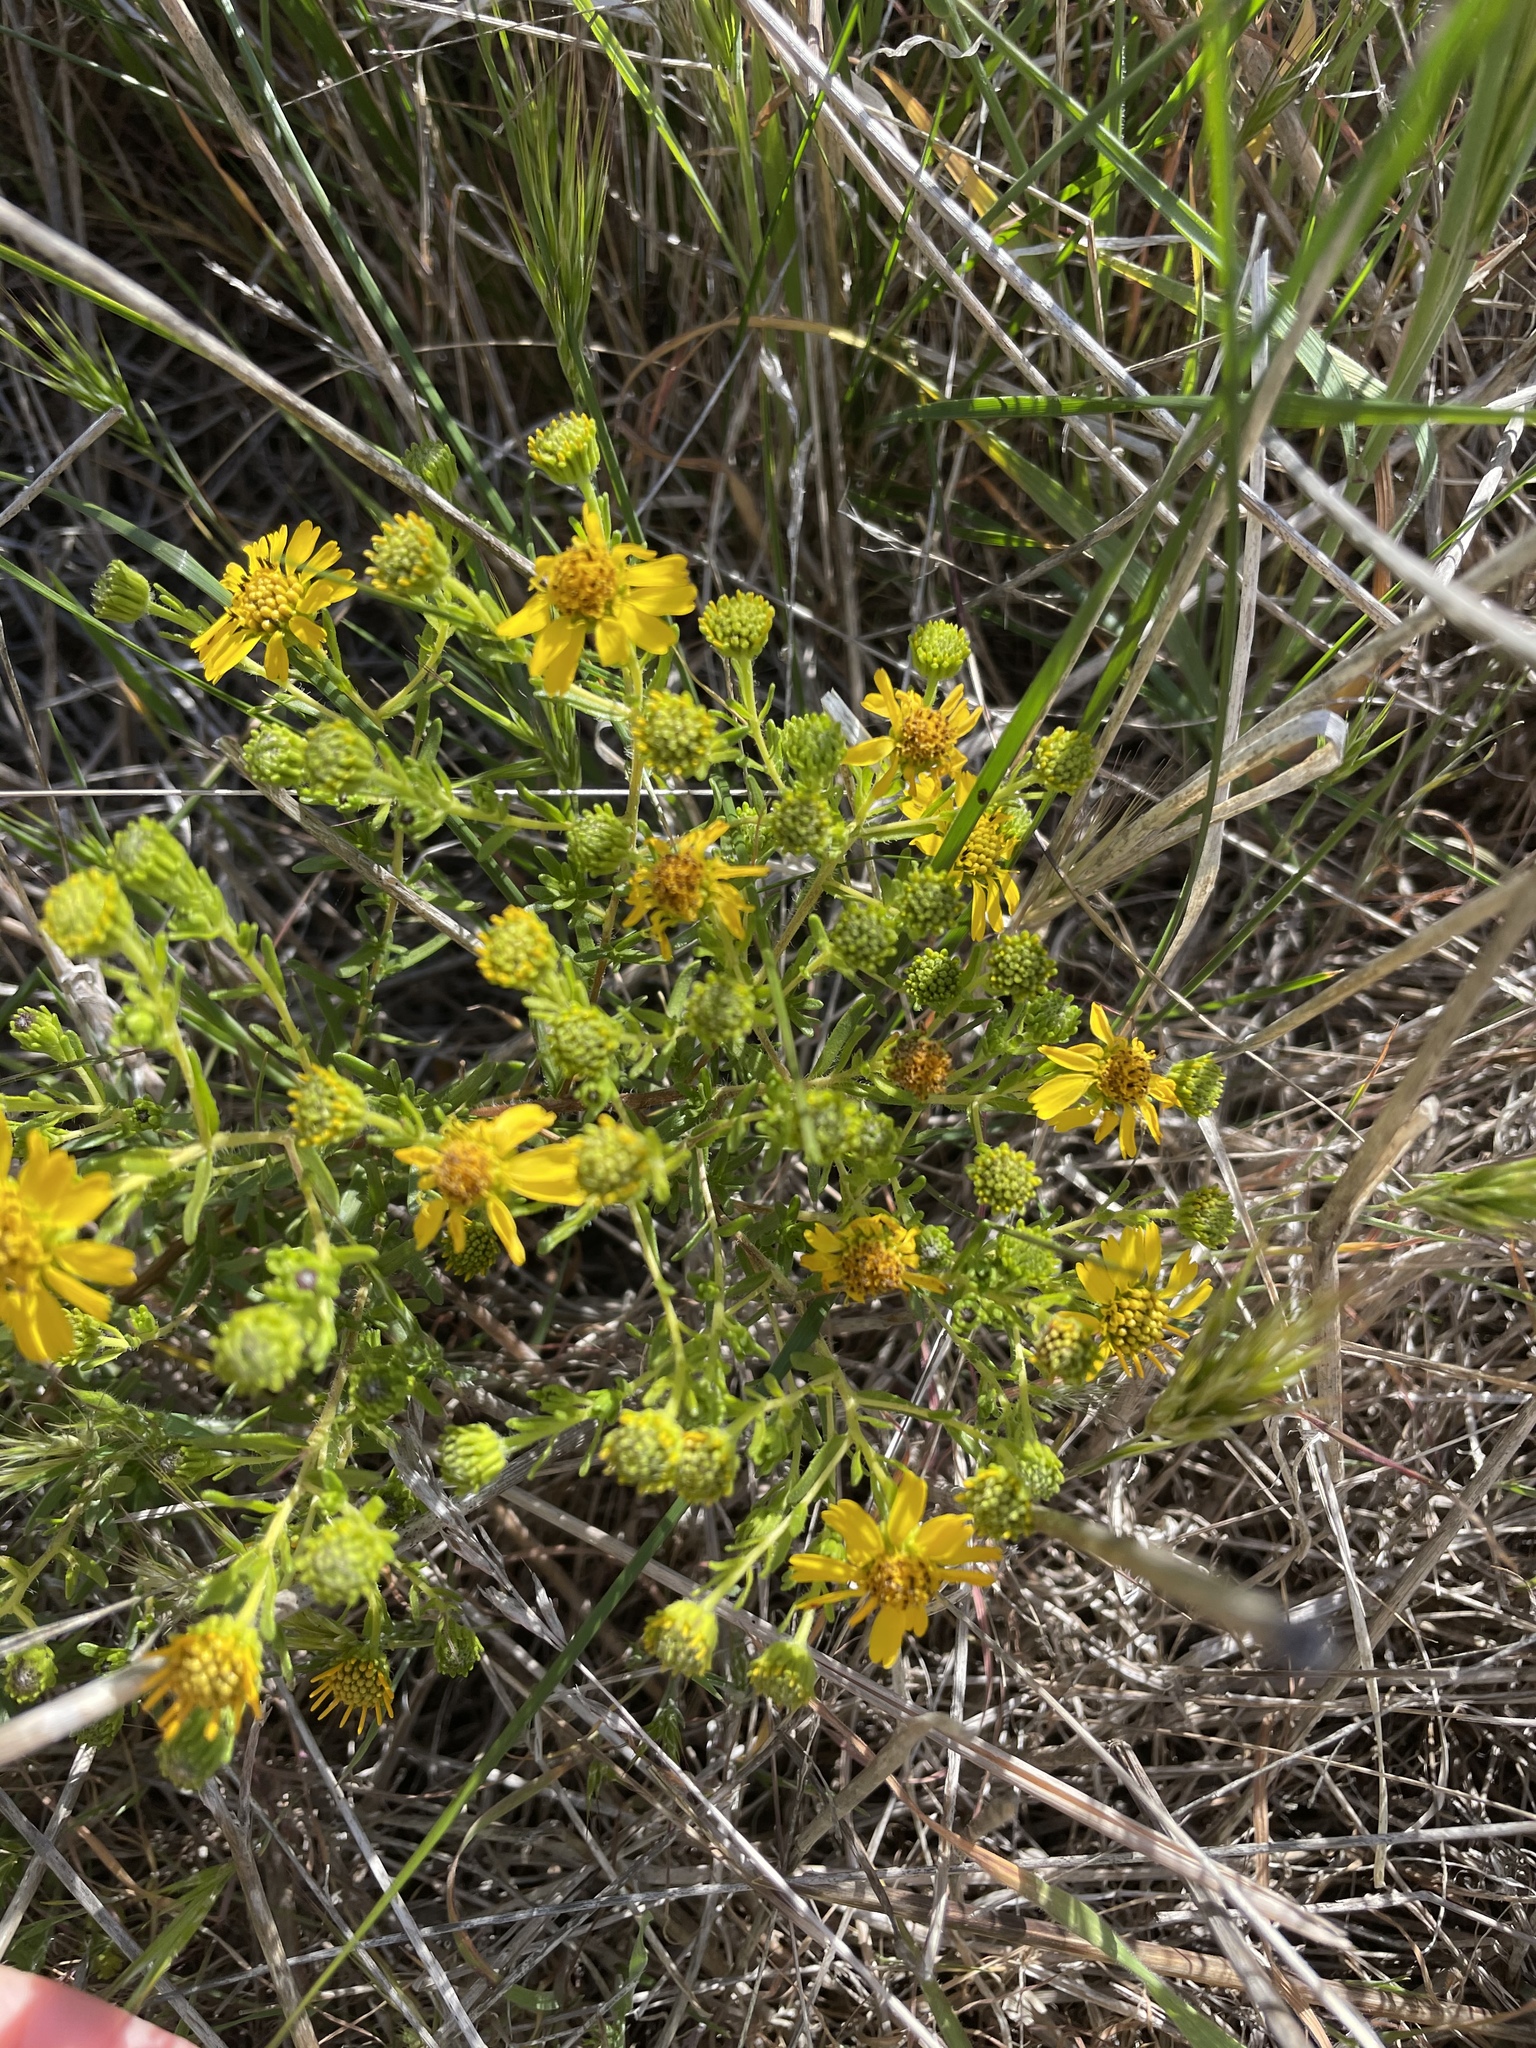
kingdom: Plantae
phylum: Tracheophyta
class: Magnoliopsida
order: Asterales
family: Asteraceae
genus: Deinandra
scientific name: Deinandra clementina
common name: Island tarplant
